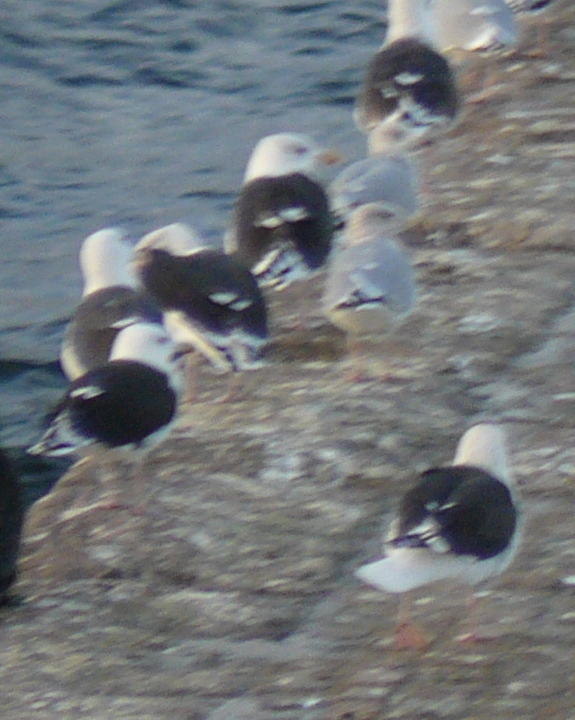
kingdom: Animalia
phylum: Chordata
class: Aves
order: Charadriiformes
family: Laridae
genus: Larus
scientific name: Larus marinus
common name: Great black-backed gull
